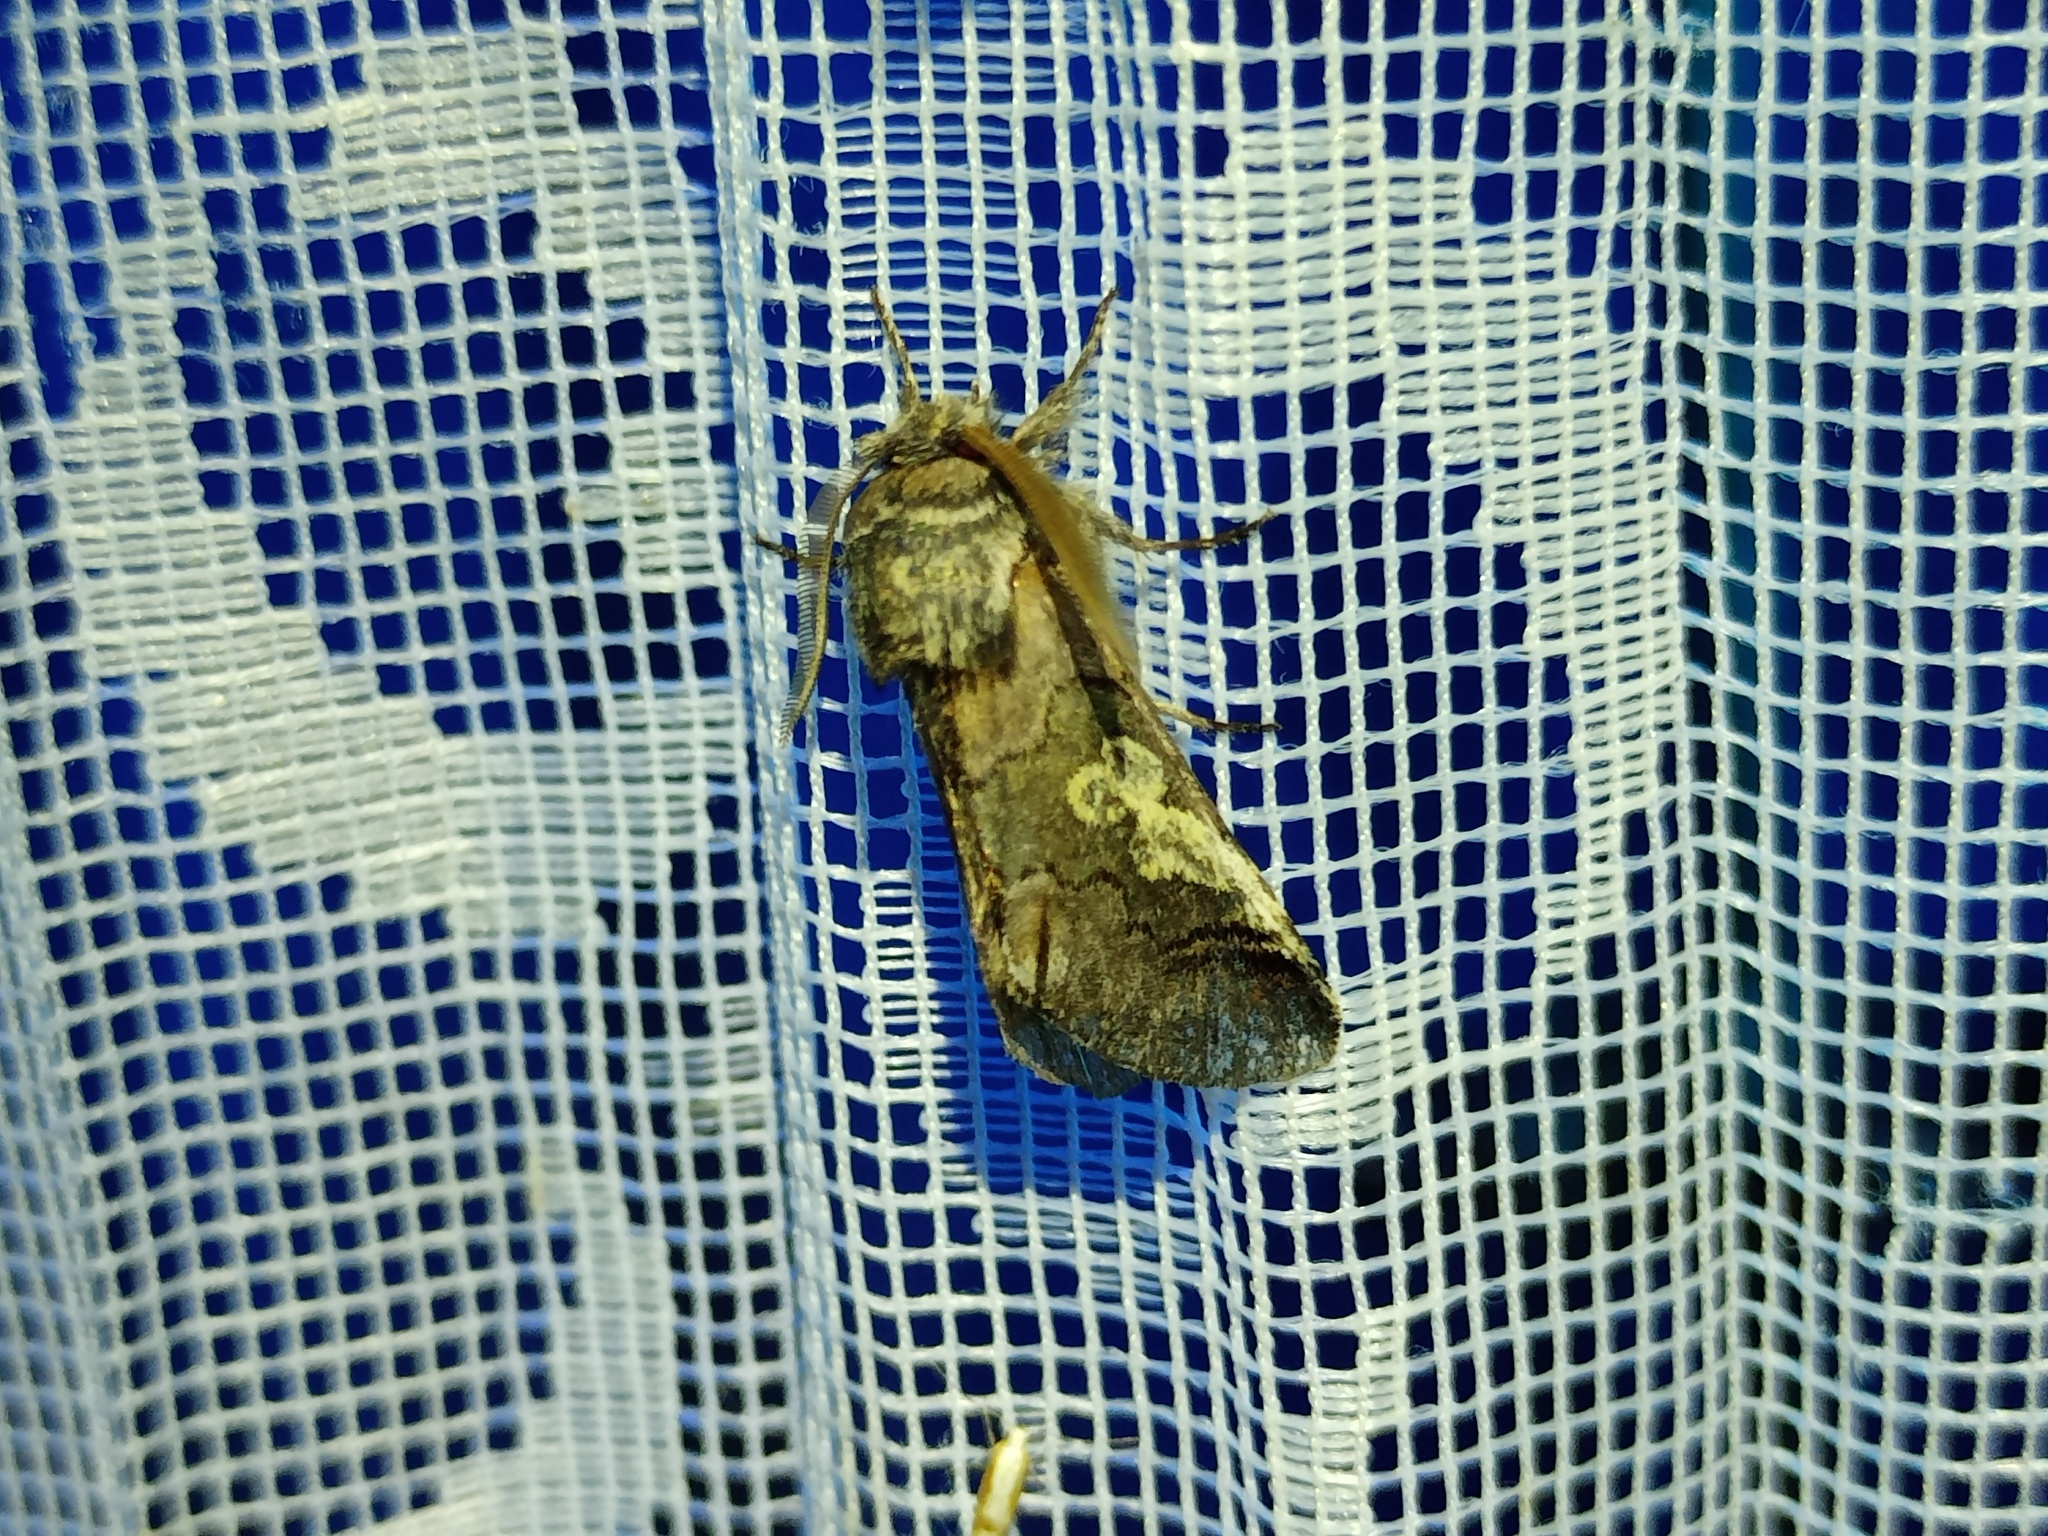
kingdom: Animalia
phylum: Arthropoda
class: Insecta
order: Lepidoptera
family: Noctuidae
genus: Diloba
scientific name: Diloba caeruleocephala
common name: Figure of eight
